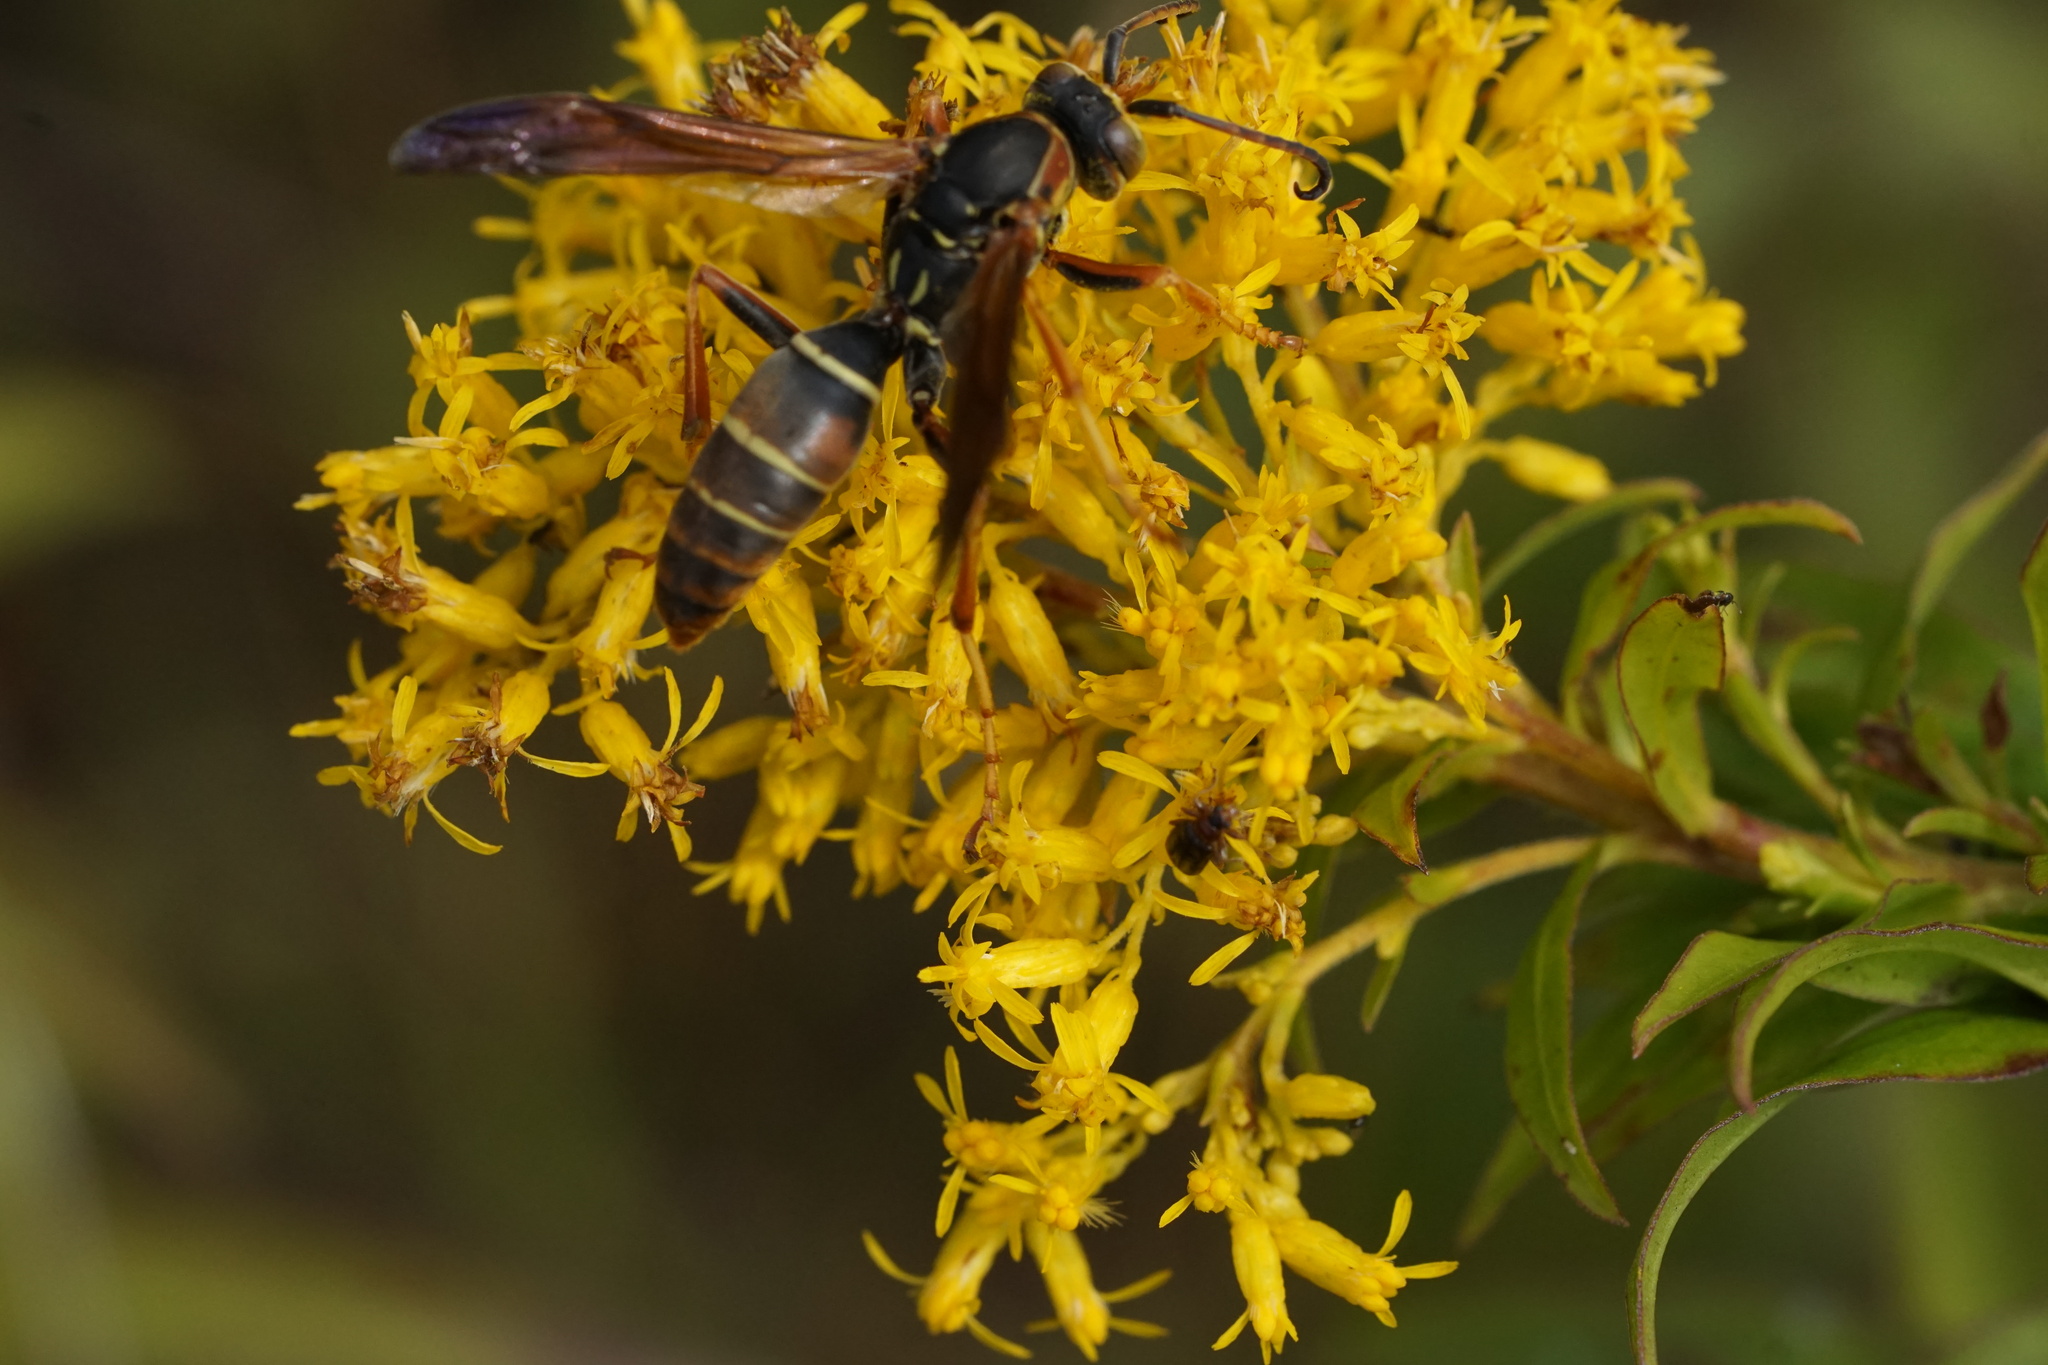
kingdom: Animalia
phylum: Arthropoda
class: Insecta
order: Hymenoptera
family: Eumenidae
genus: Polistes
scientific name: Polistes fuscatus
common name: Dark paper wasp
